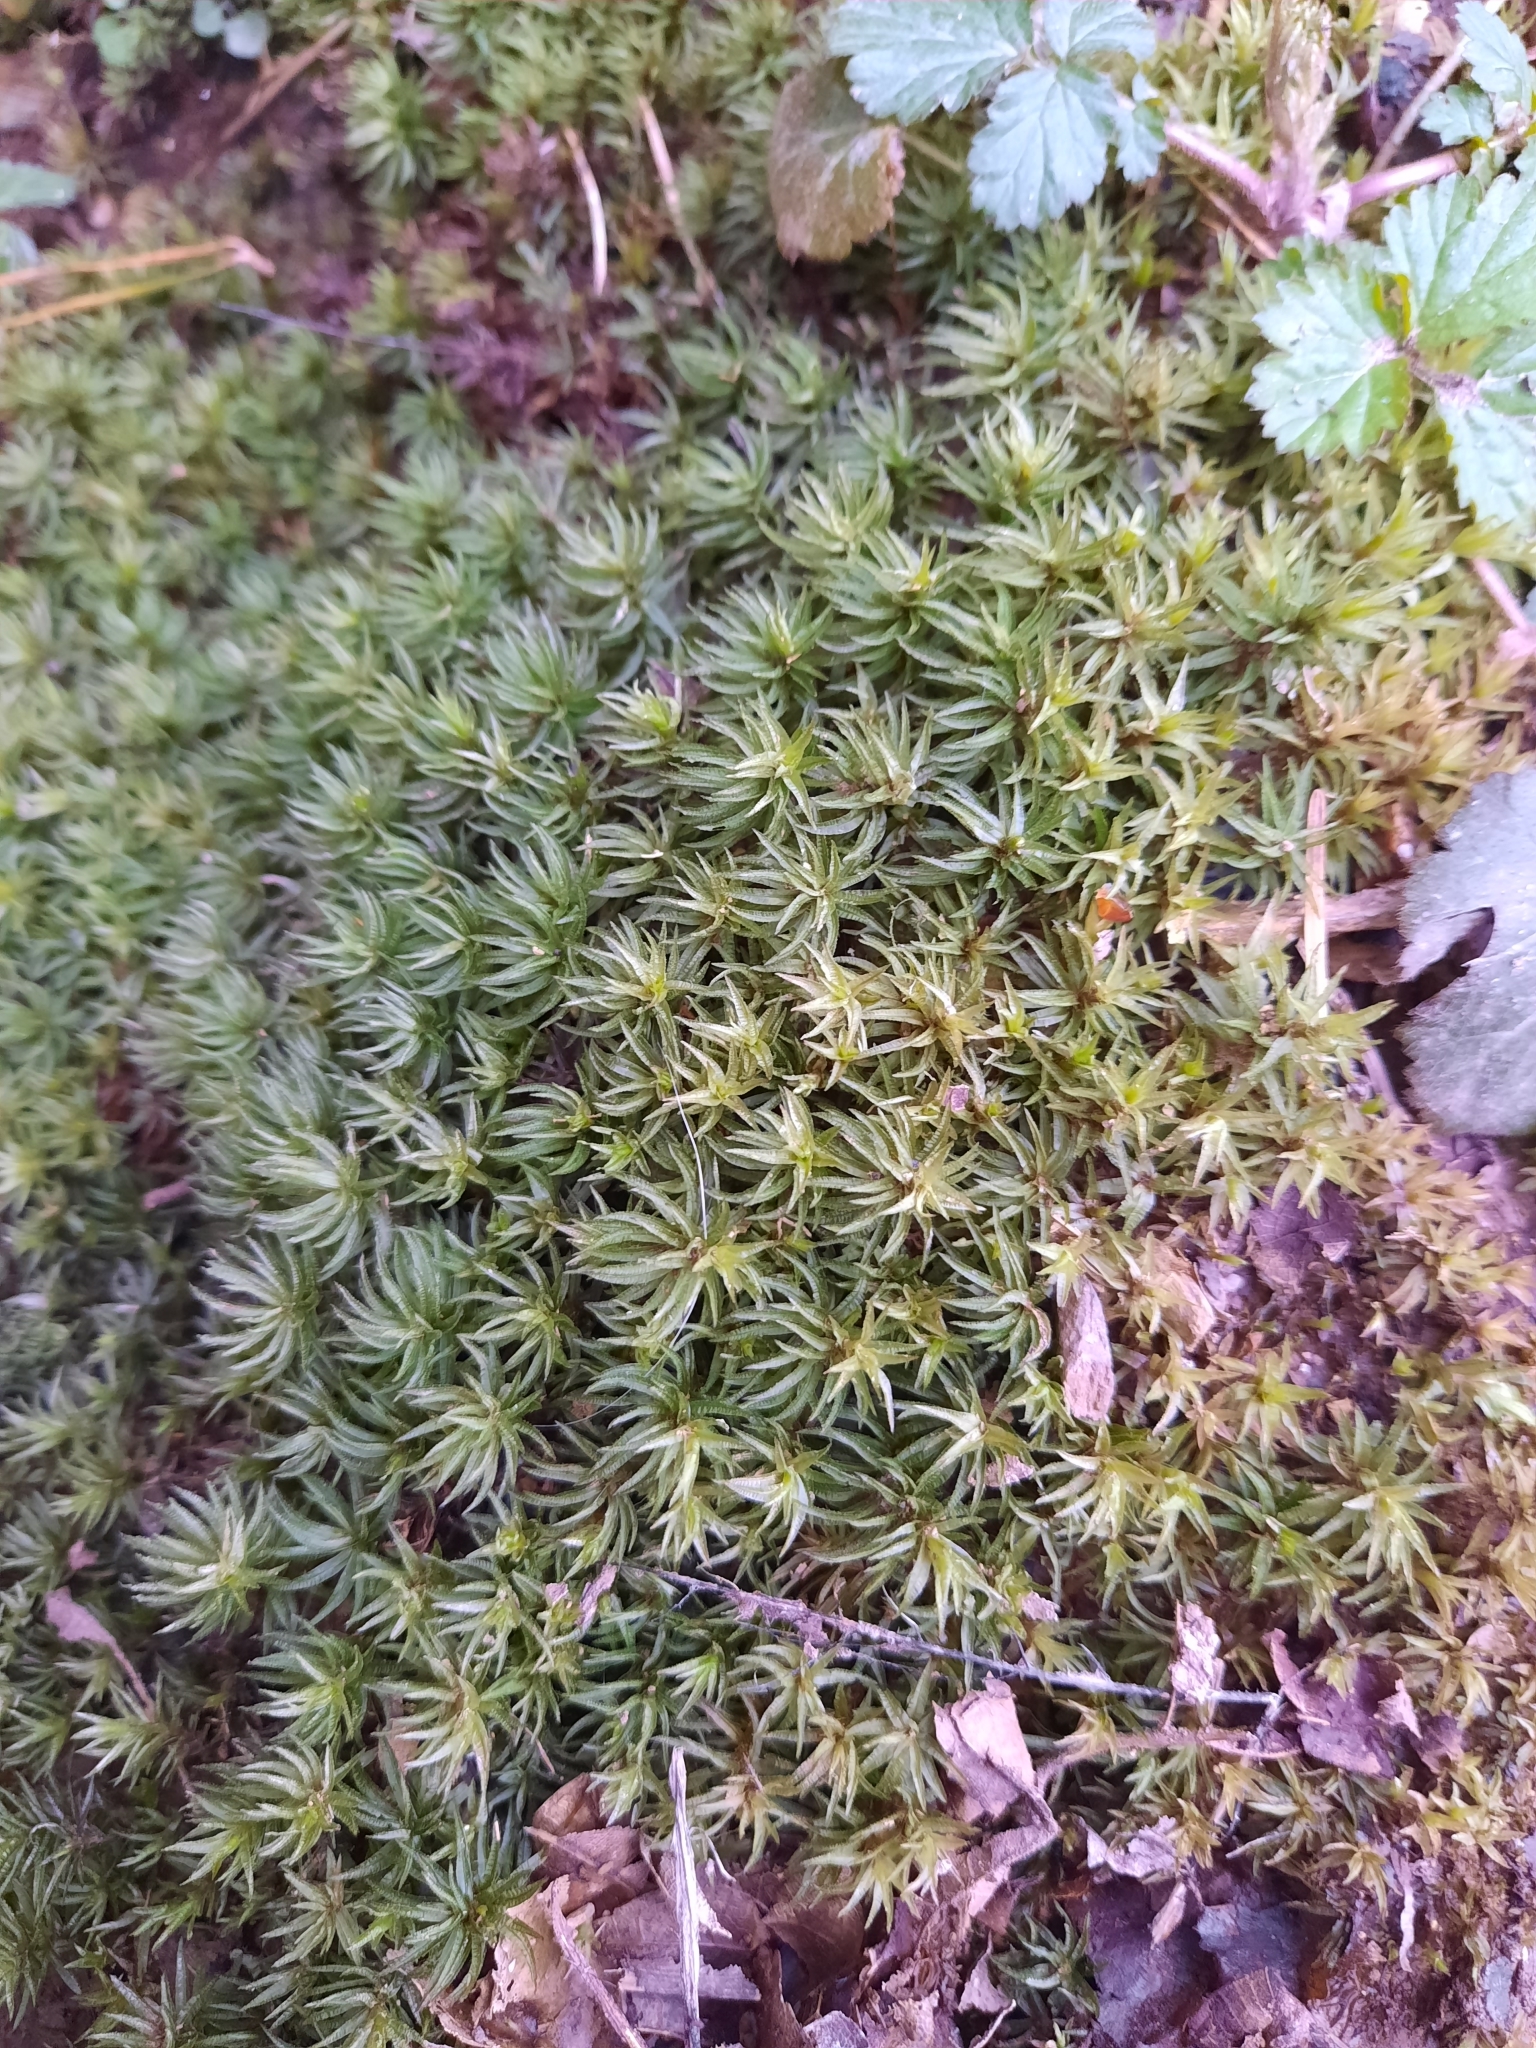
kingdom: Plantae
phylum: Bryophyta
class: Polytrichopsida
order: Polytrichales
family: Polytrichaceae
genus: Atrichum
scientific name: Atrichum undulatum
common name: Common smoothcap
